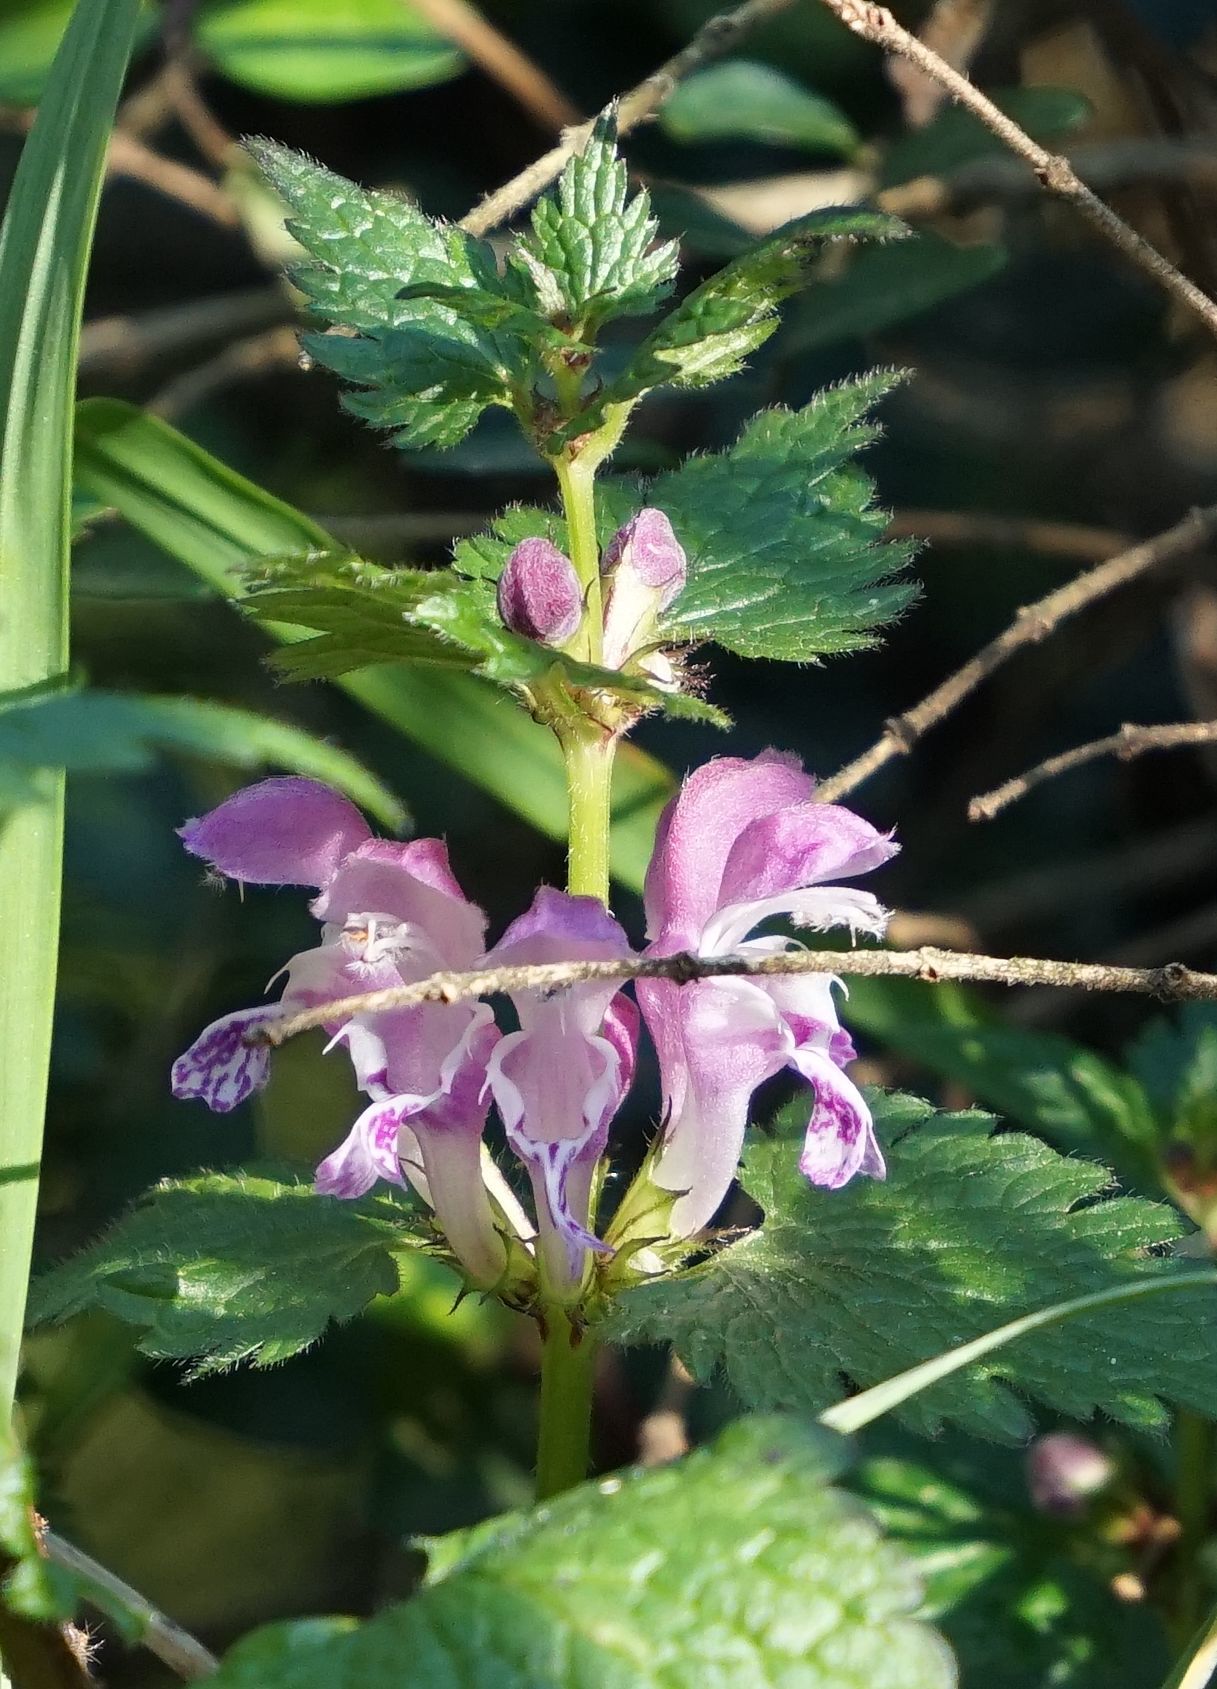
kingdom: Plantae
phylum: Tracheophyta
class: Magnoliopsida
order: Lamiales
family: Lamiaceae
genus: Lamium
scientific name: Lamium maculatum
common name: Spotted dead-nettle
